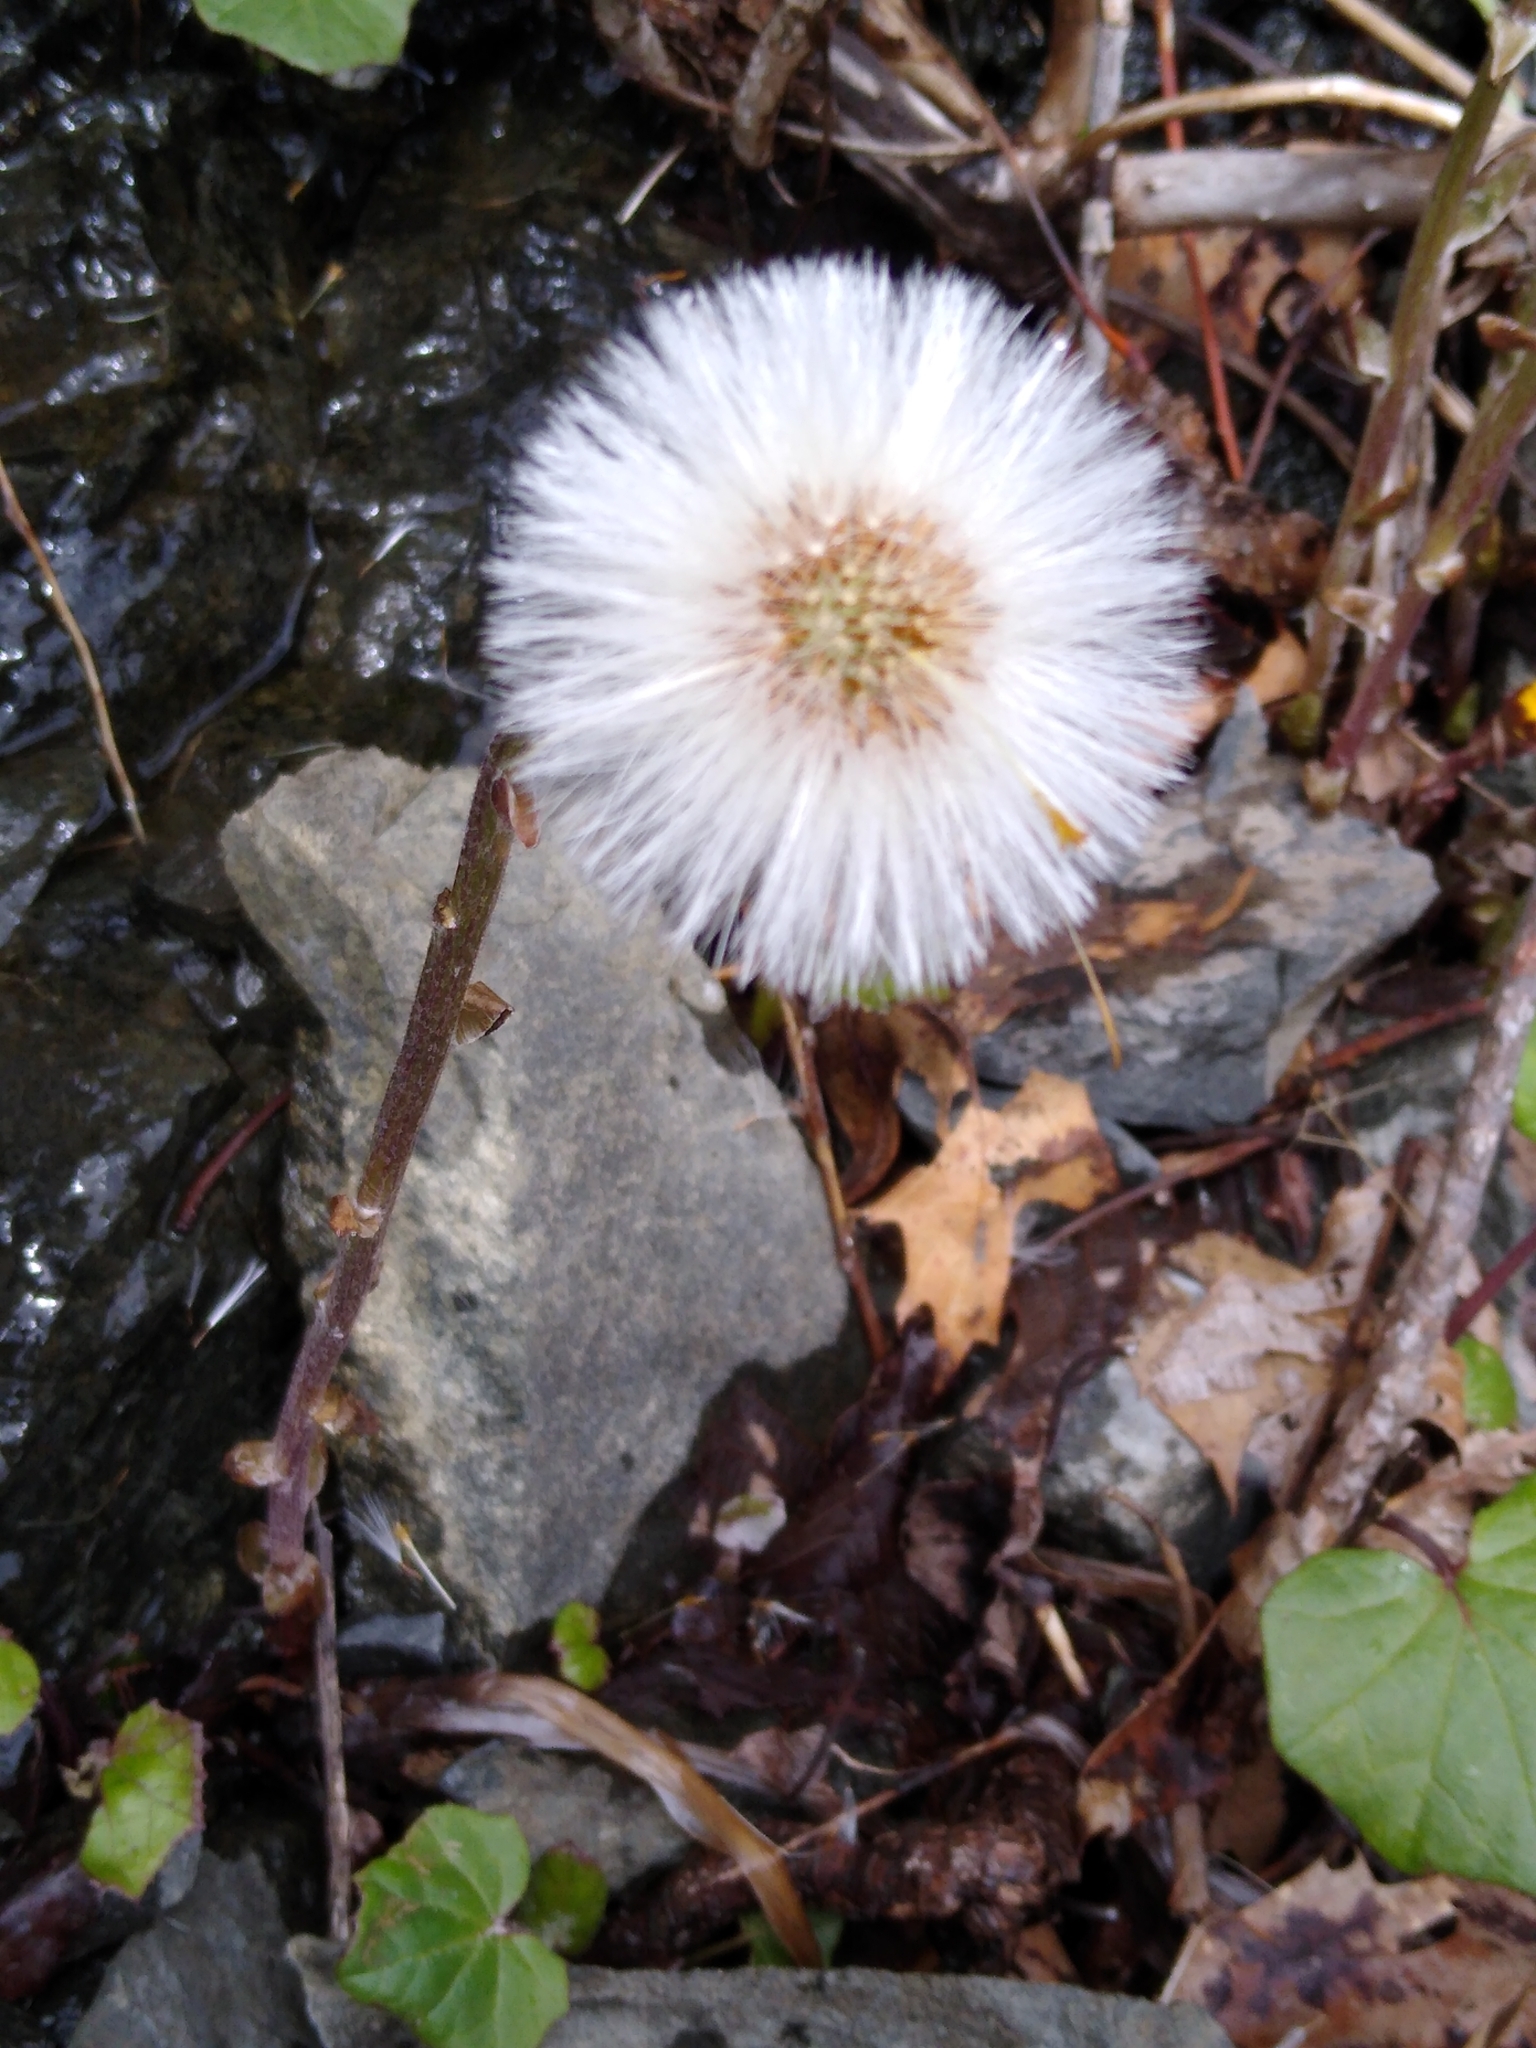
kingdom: Plantae
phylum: Tracheophyta
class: Magnoliopsida
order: Asterales
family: Asteraceae
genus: Tussilago
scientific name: Tussilago farfara
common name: Coltsfoot
